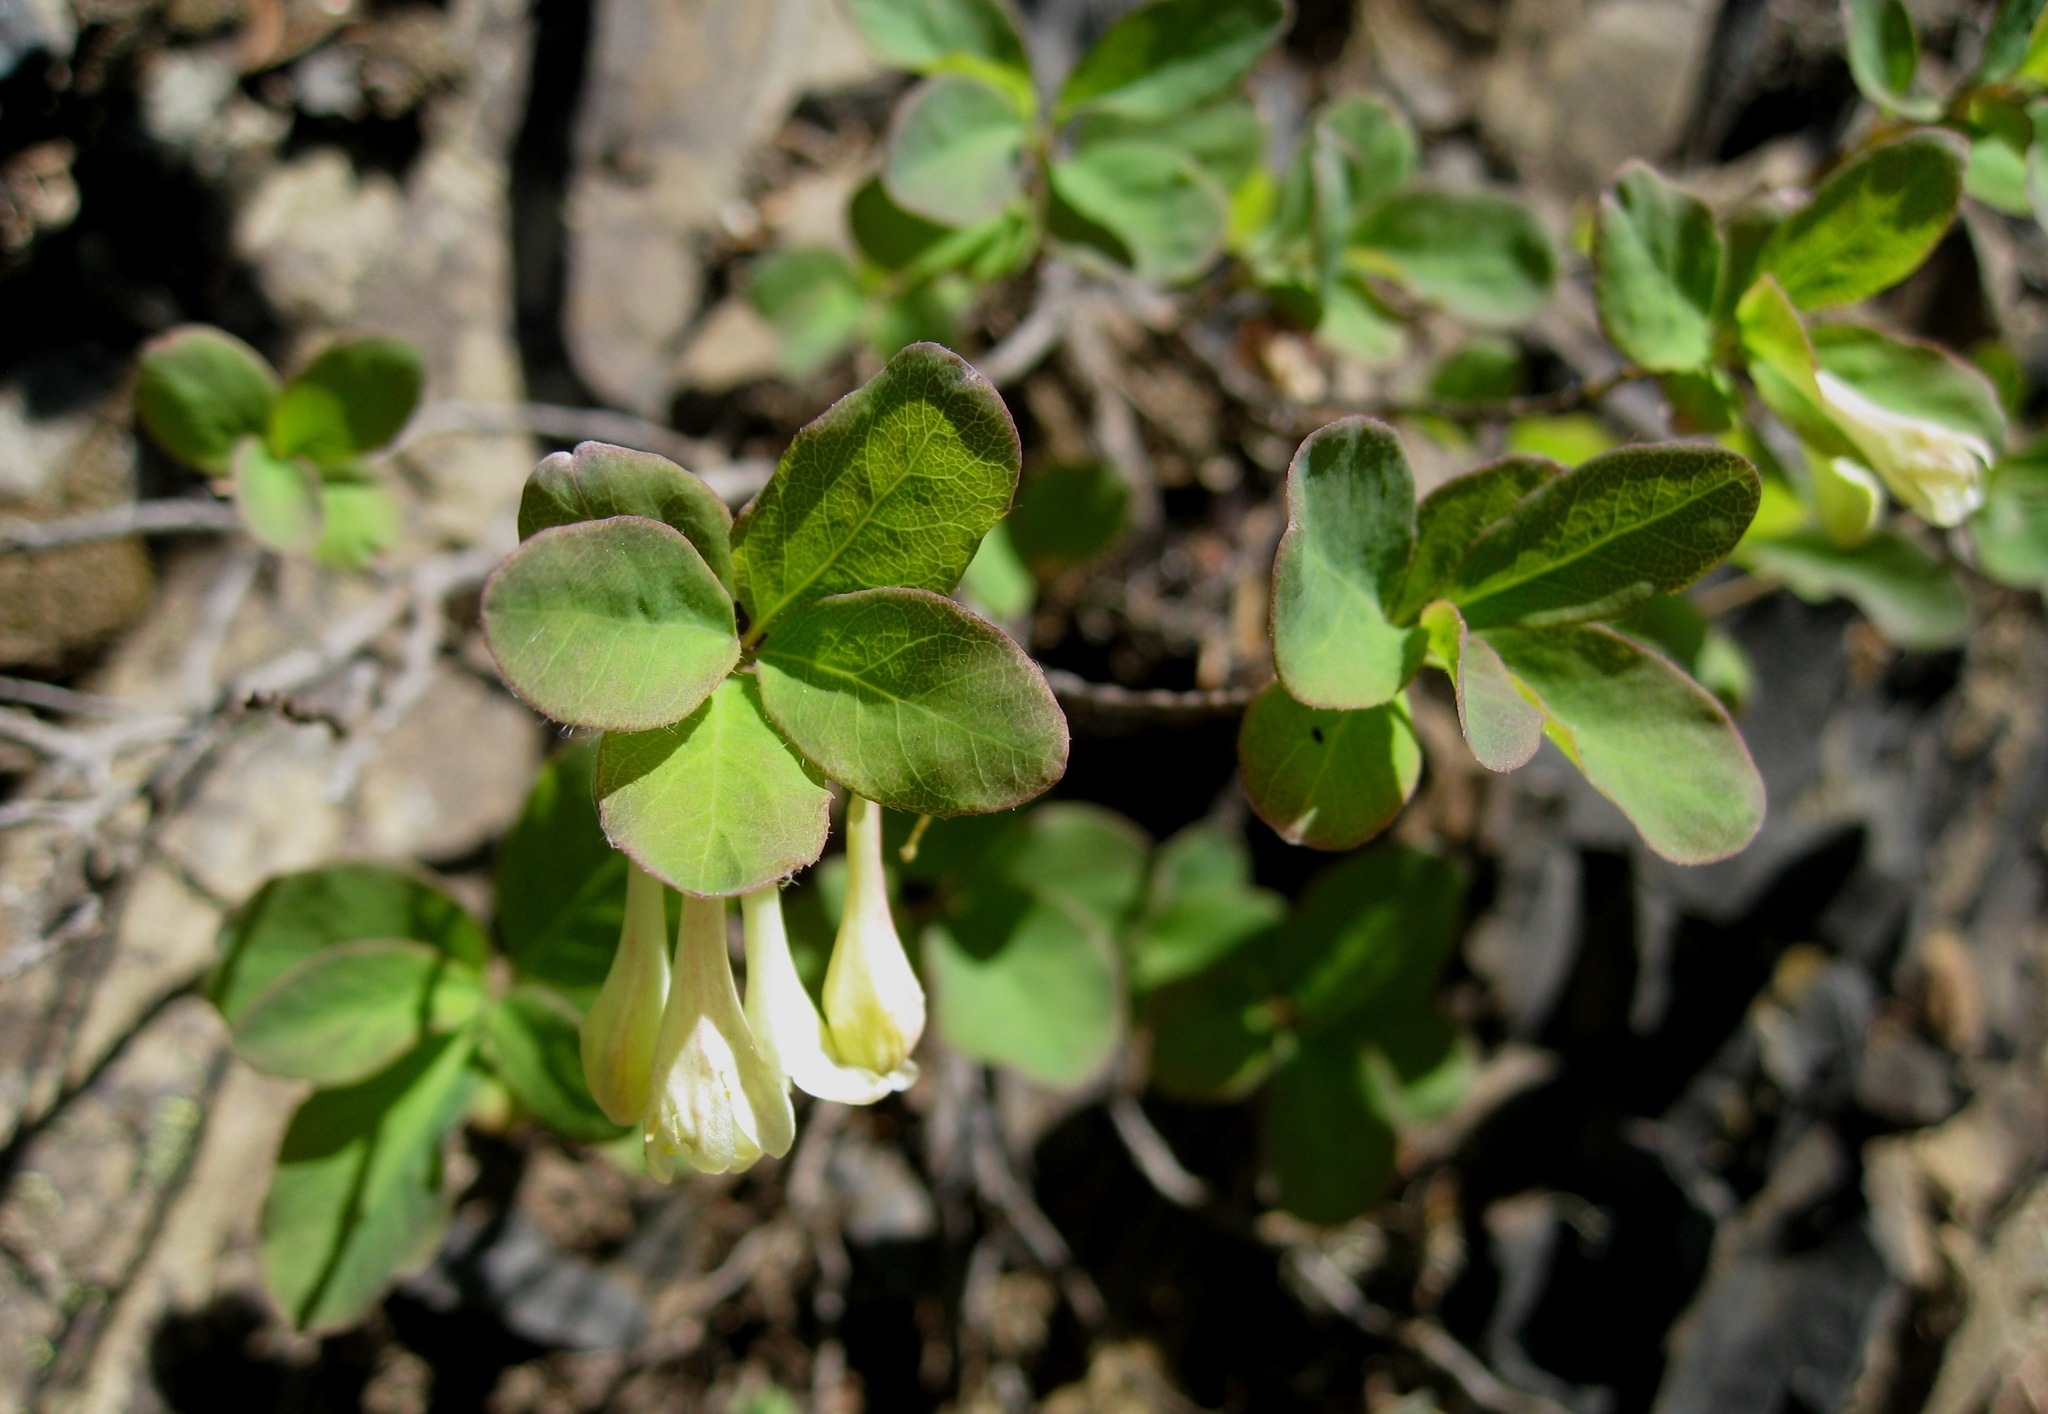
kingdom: Plantae
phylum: Tracheophyta
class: Magnoliopsida
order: Dipsacales
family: Caprifoliaceae
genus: Lonicera
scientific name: Lonicera utahensis
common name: Utah honeysuckle
